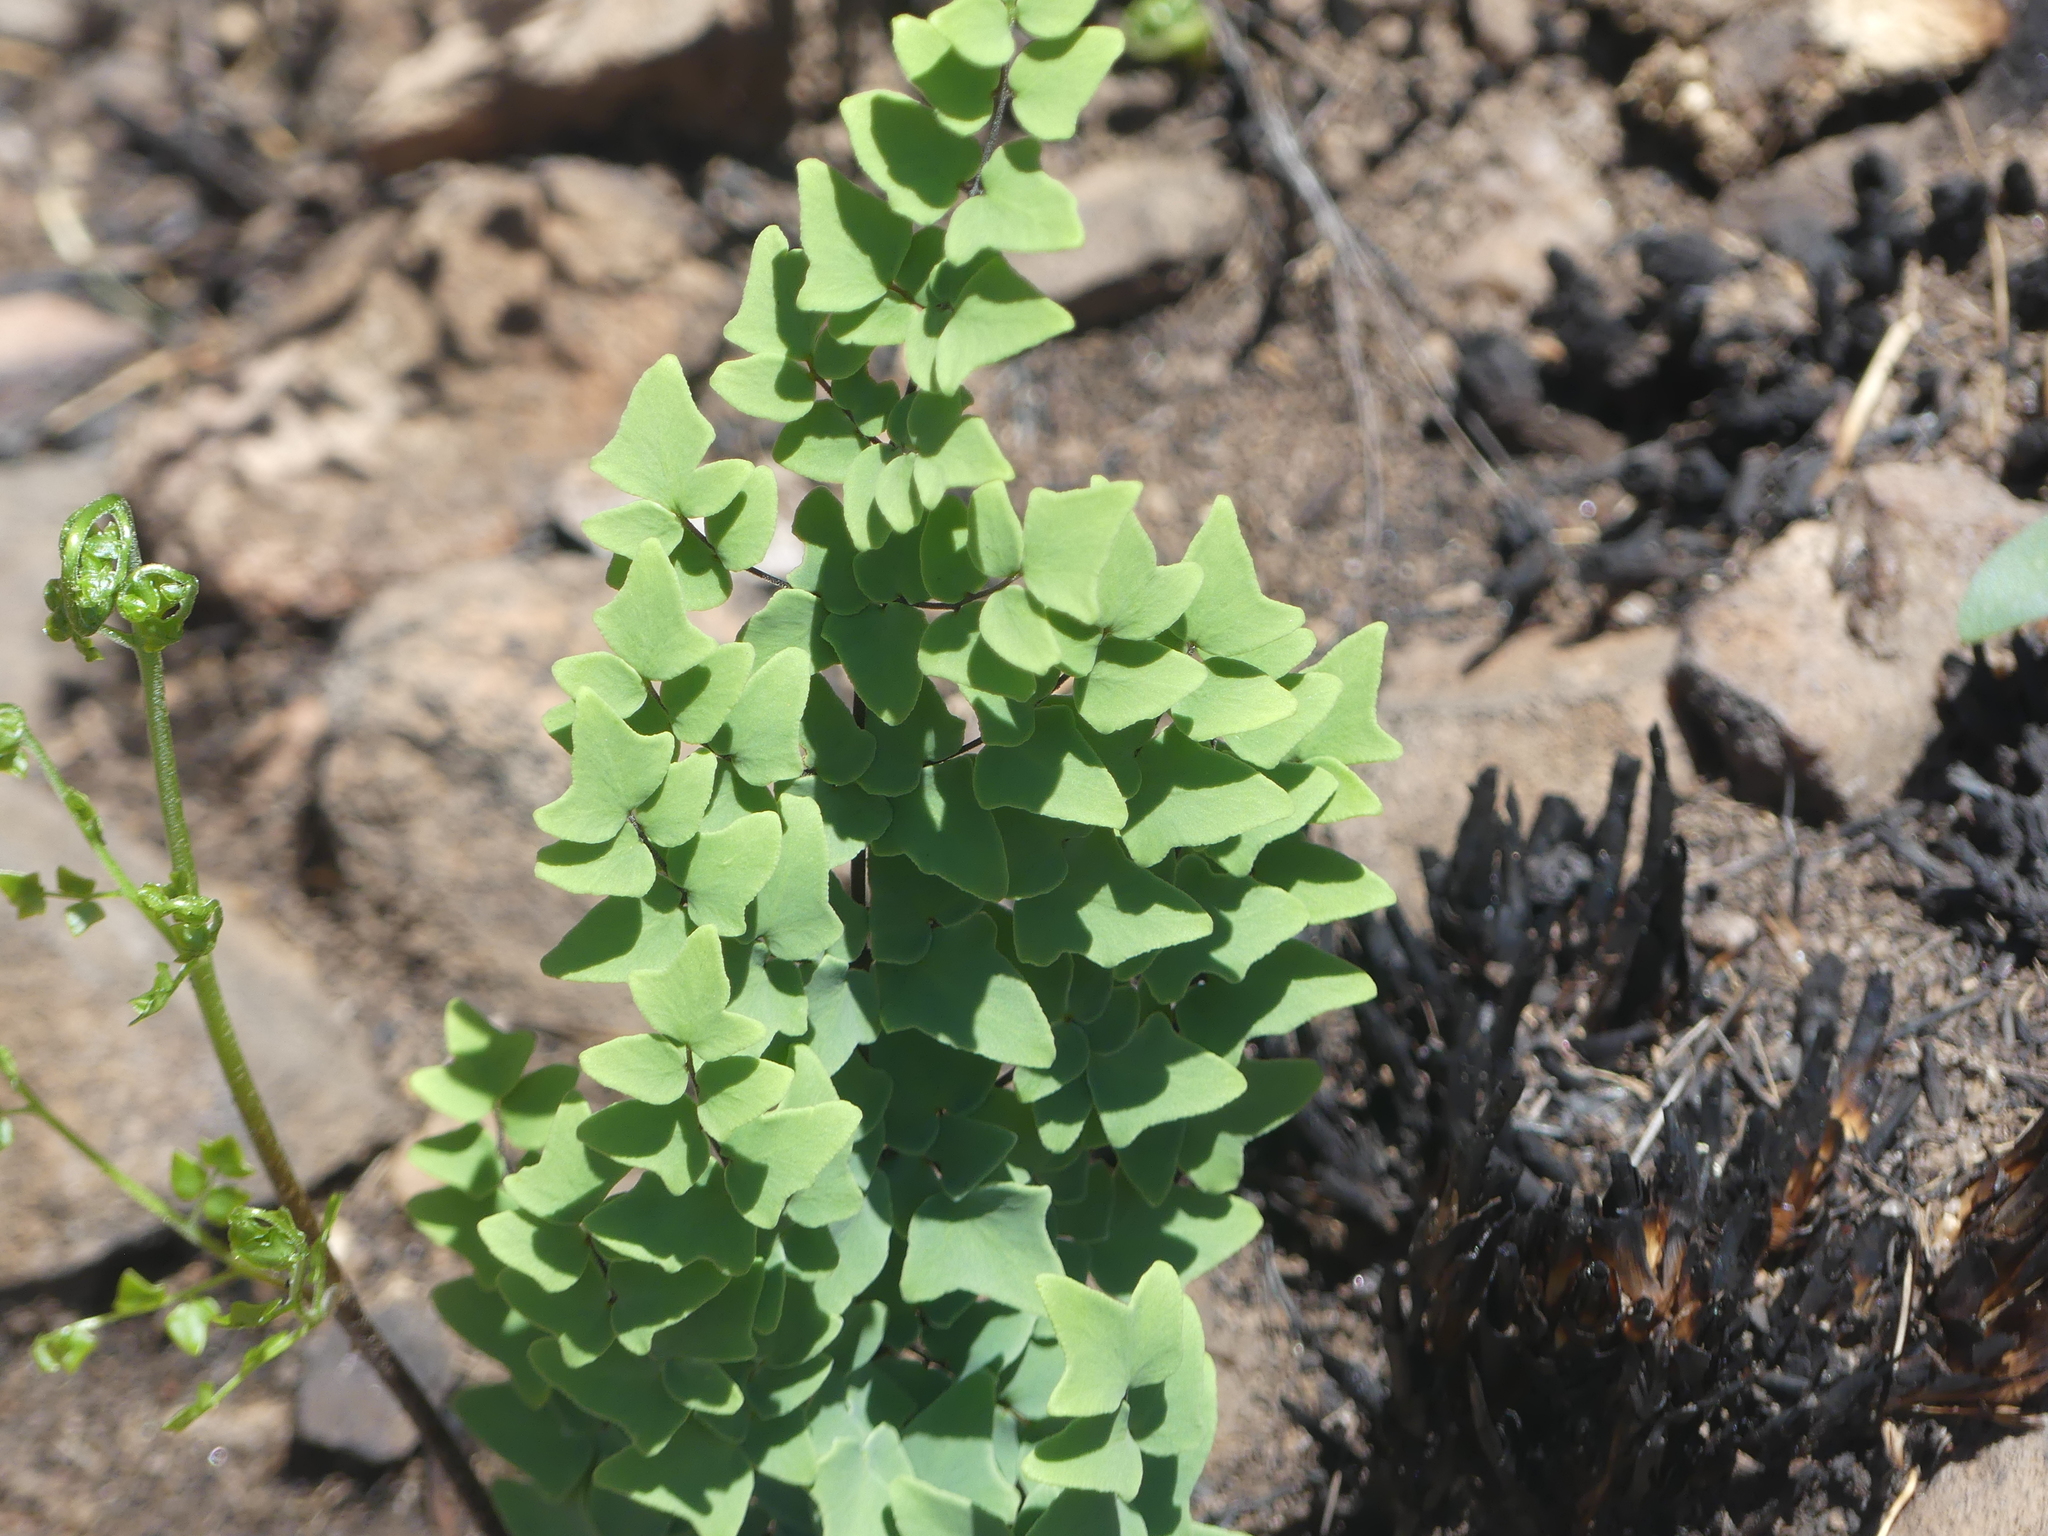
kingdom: Plantae
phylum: Tracheophyta
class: Polypodiopsida
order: Polypodiales
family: Pteridaceae
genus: Pellaea
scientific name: Pellaea calomelanos
